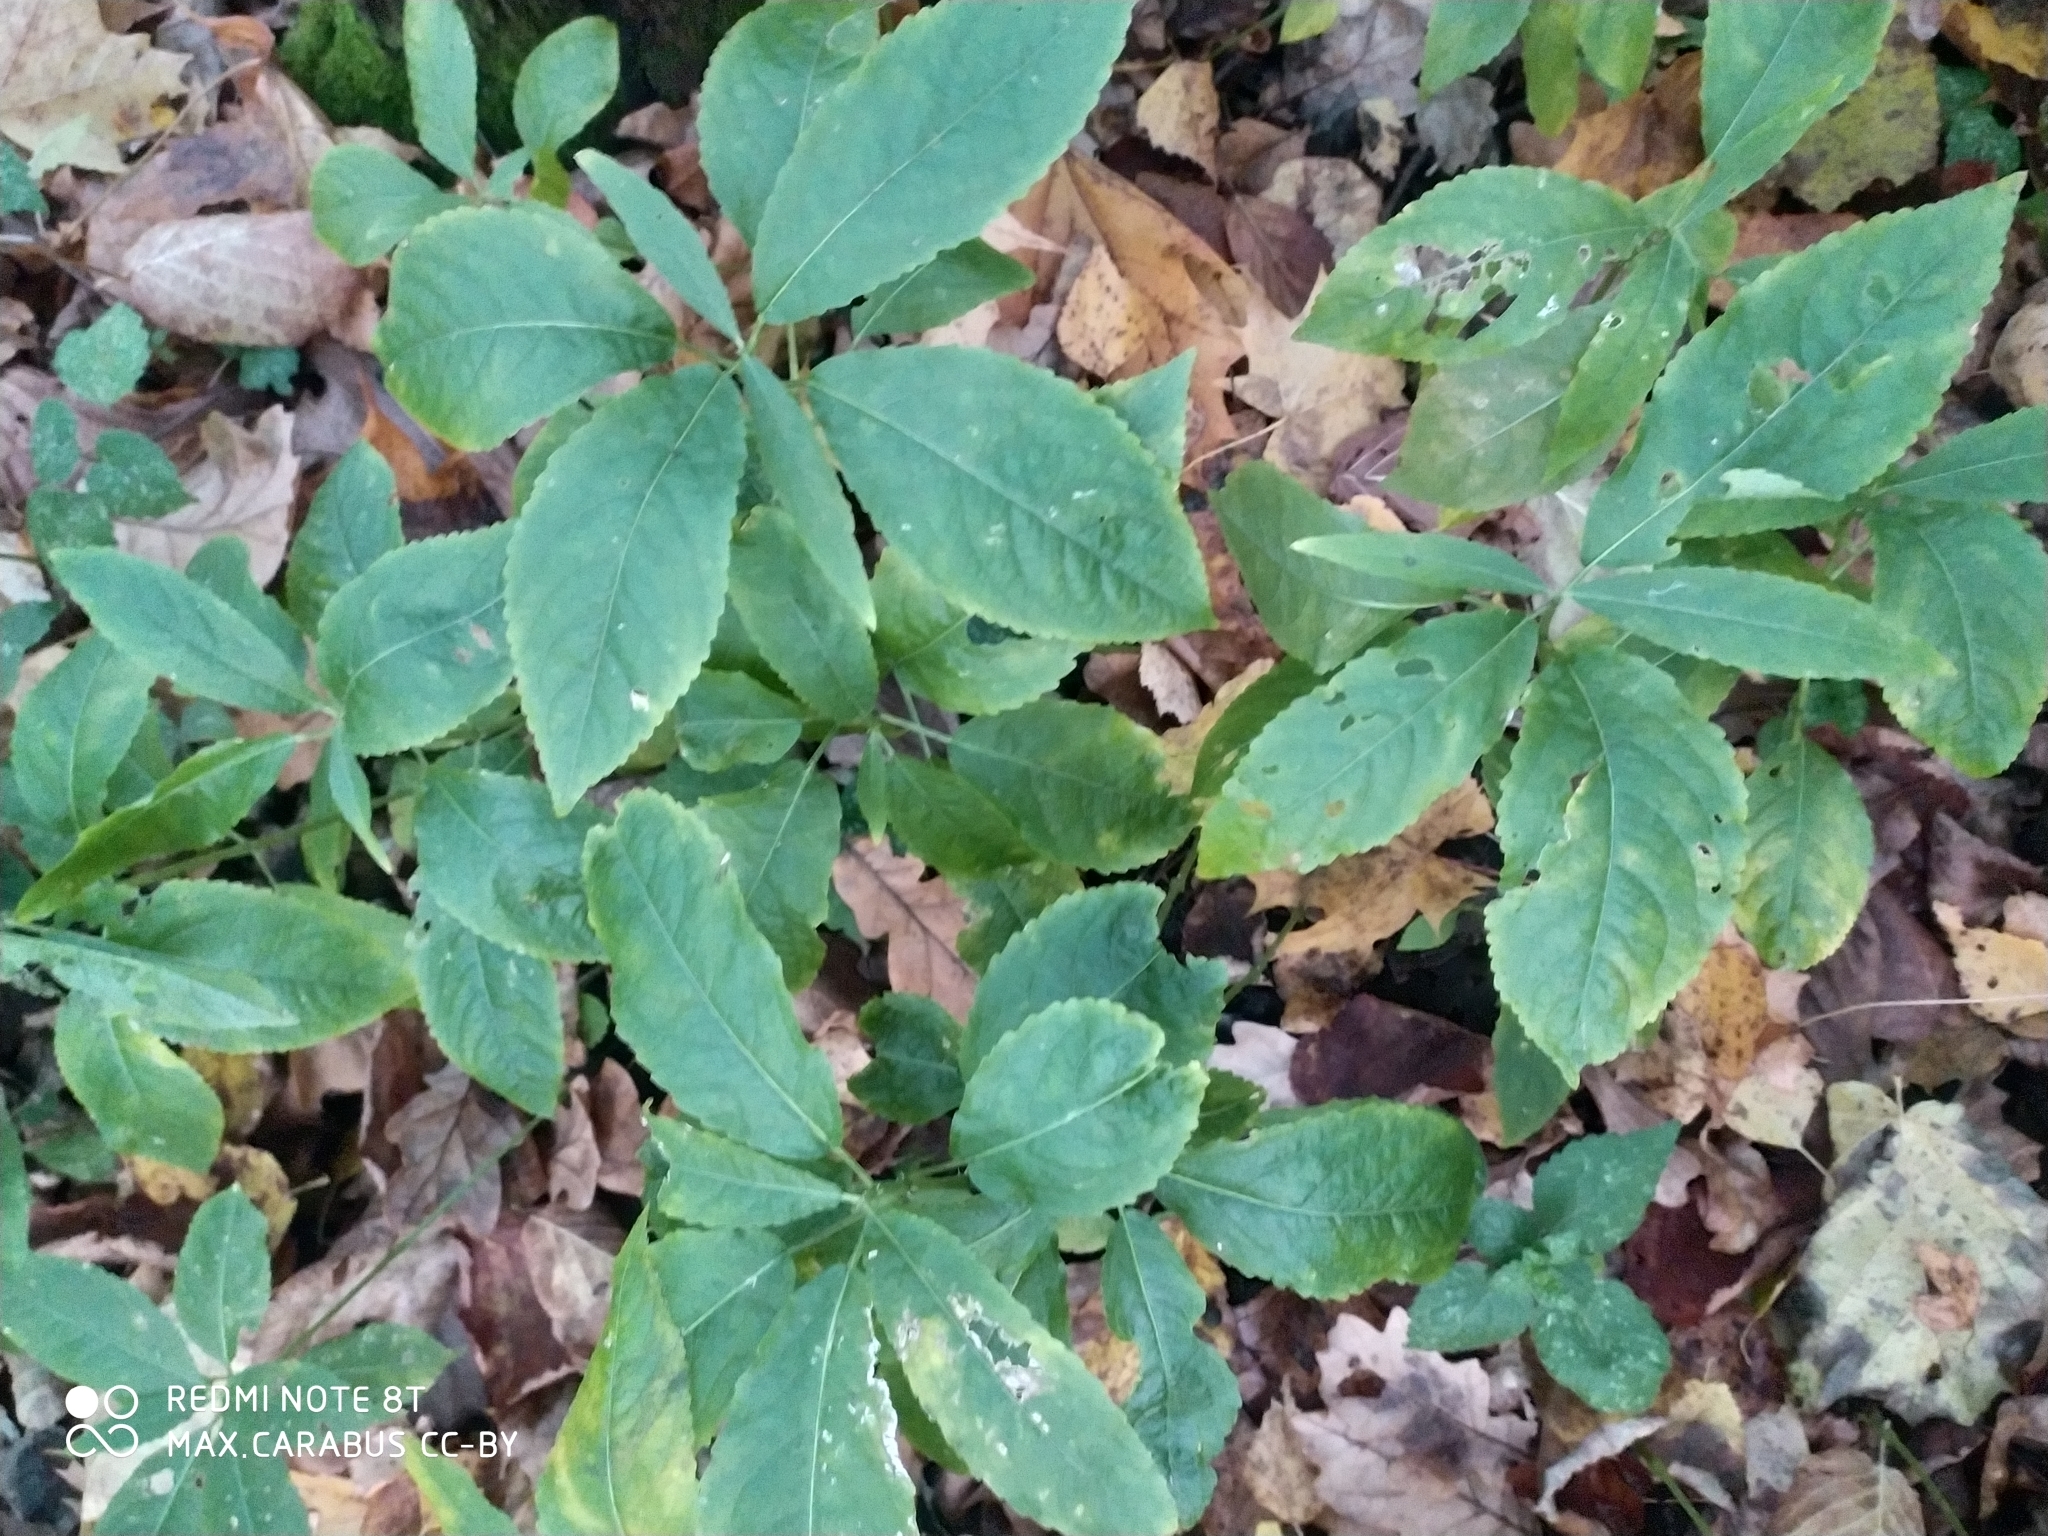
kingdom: Plantae
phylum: Tracheophyta
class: Magnoliopsida
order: Malpighiales
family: Euphorbiaceae
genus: Mercurialis
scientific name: Mercurialis perennis
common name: Dog mercury
